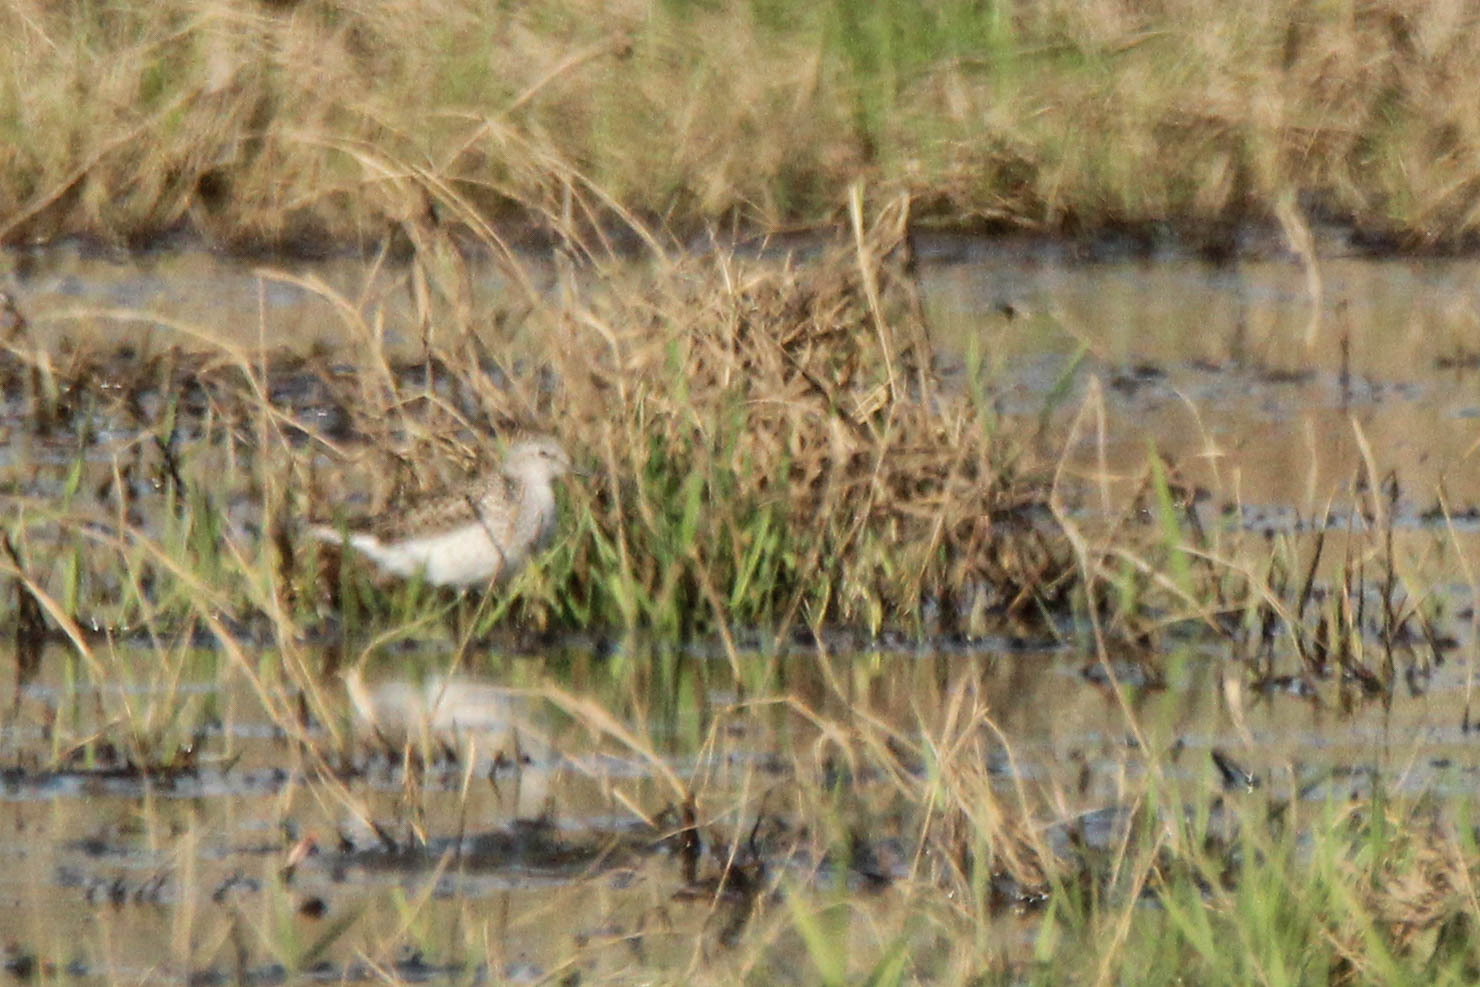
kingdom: Animalia
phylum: Chordata
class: Aves
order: Charadriiformes
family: Scolopacidae
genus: Tringa
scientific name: Tringa stagnatilis
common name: Marsh sandpiper
